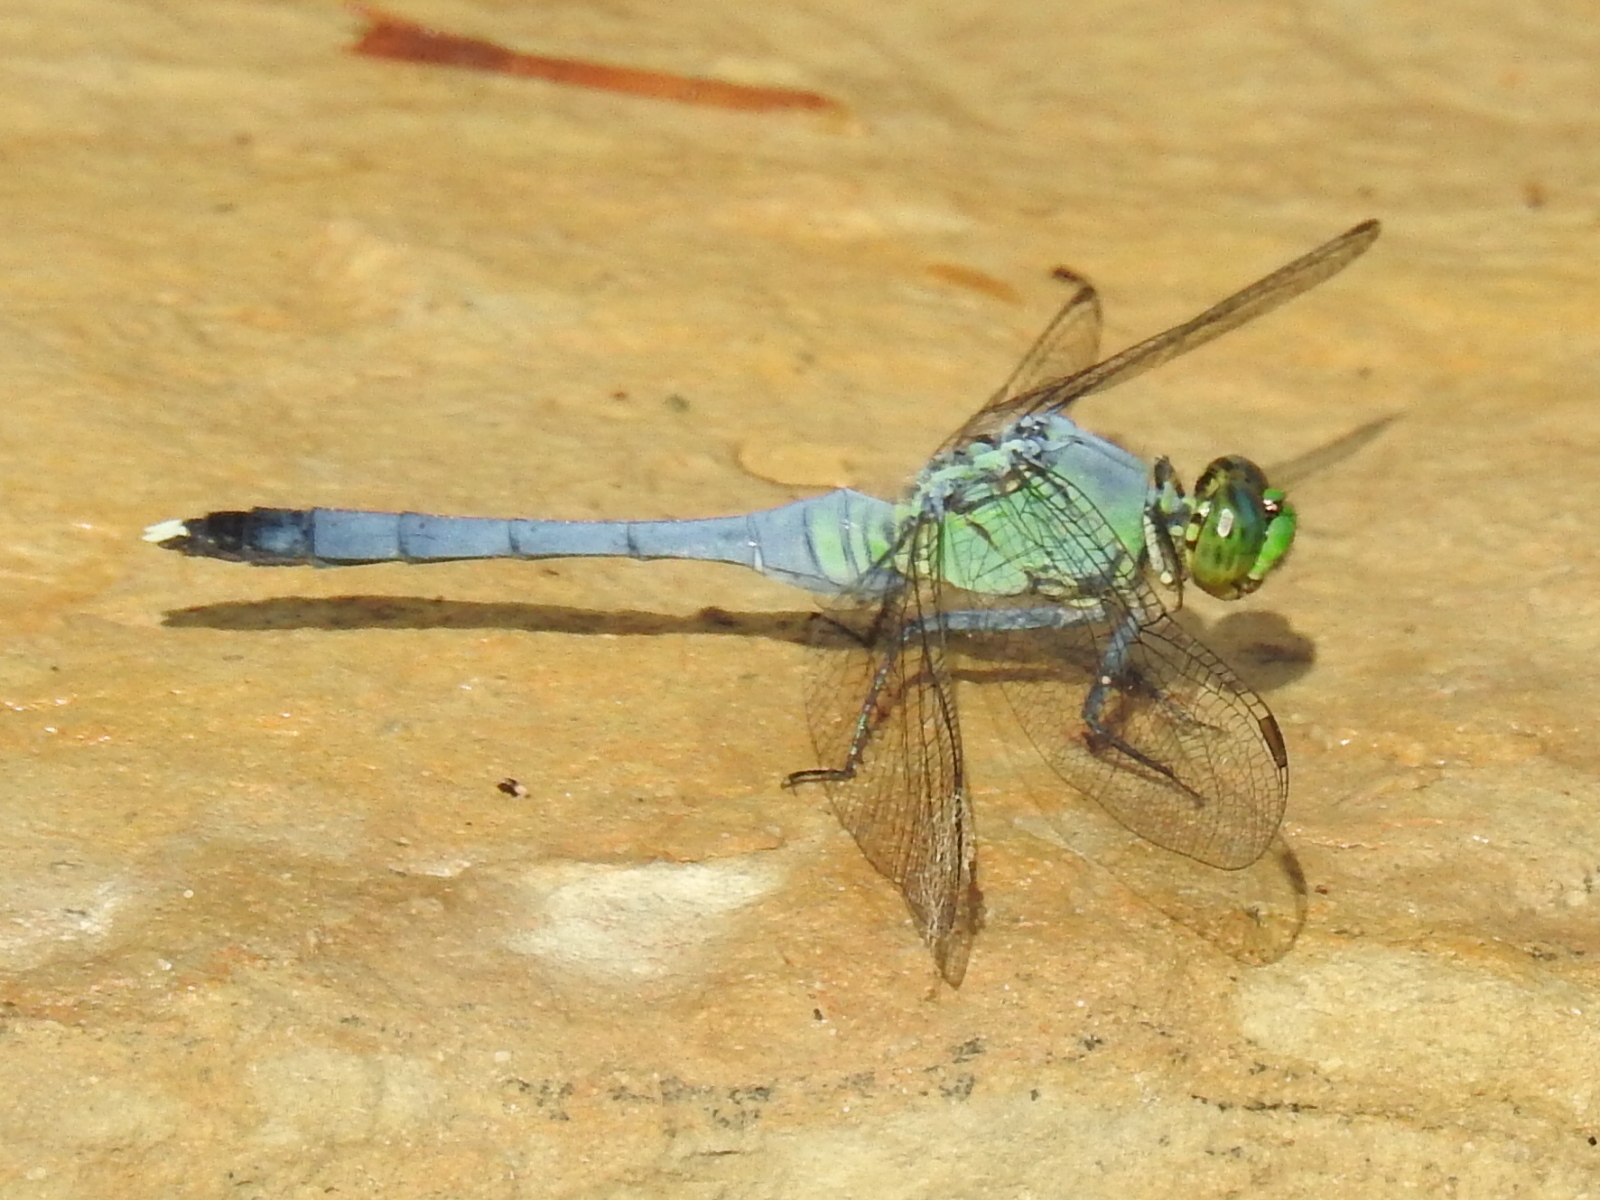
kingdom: Animalia
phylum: Arthropoda
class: Insecta
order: Odonata
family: Libellulidae
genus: Erythemis
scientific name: Erythemis simplicicollis
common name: Eastern pondhawk
